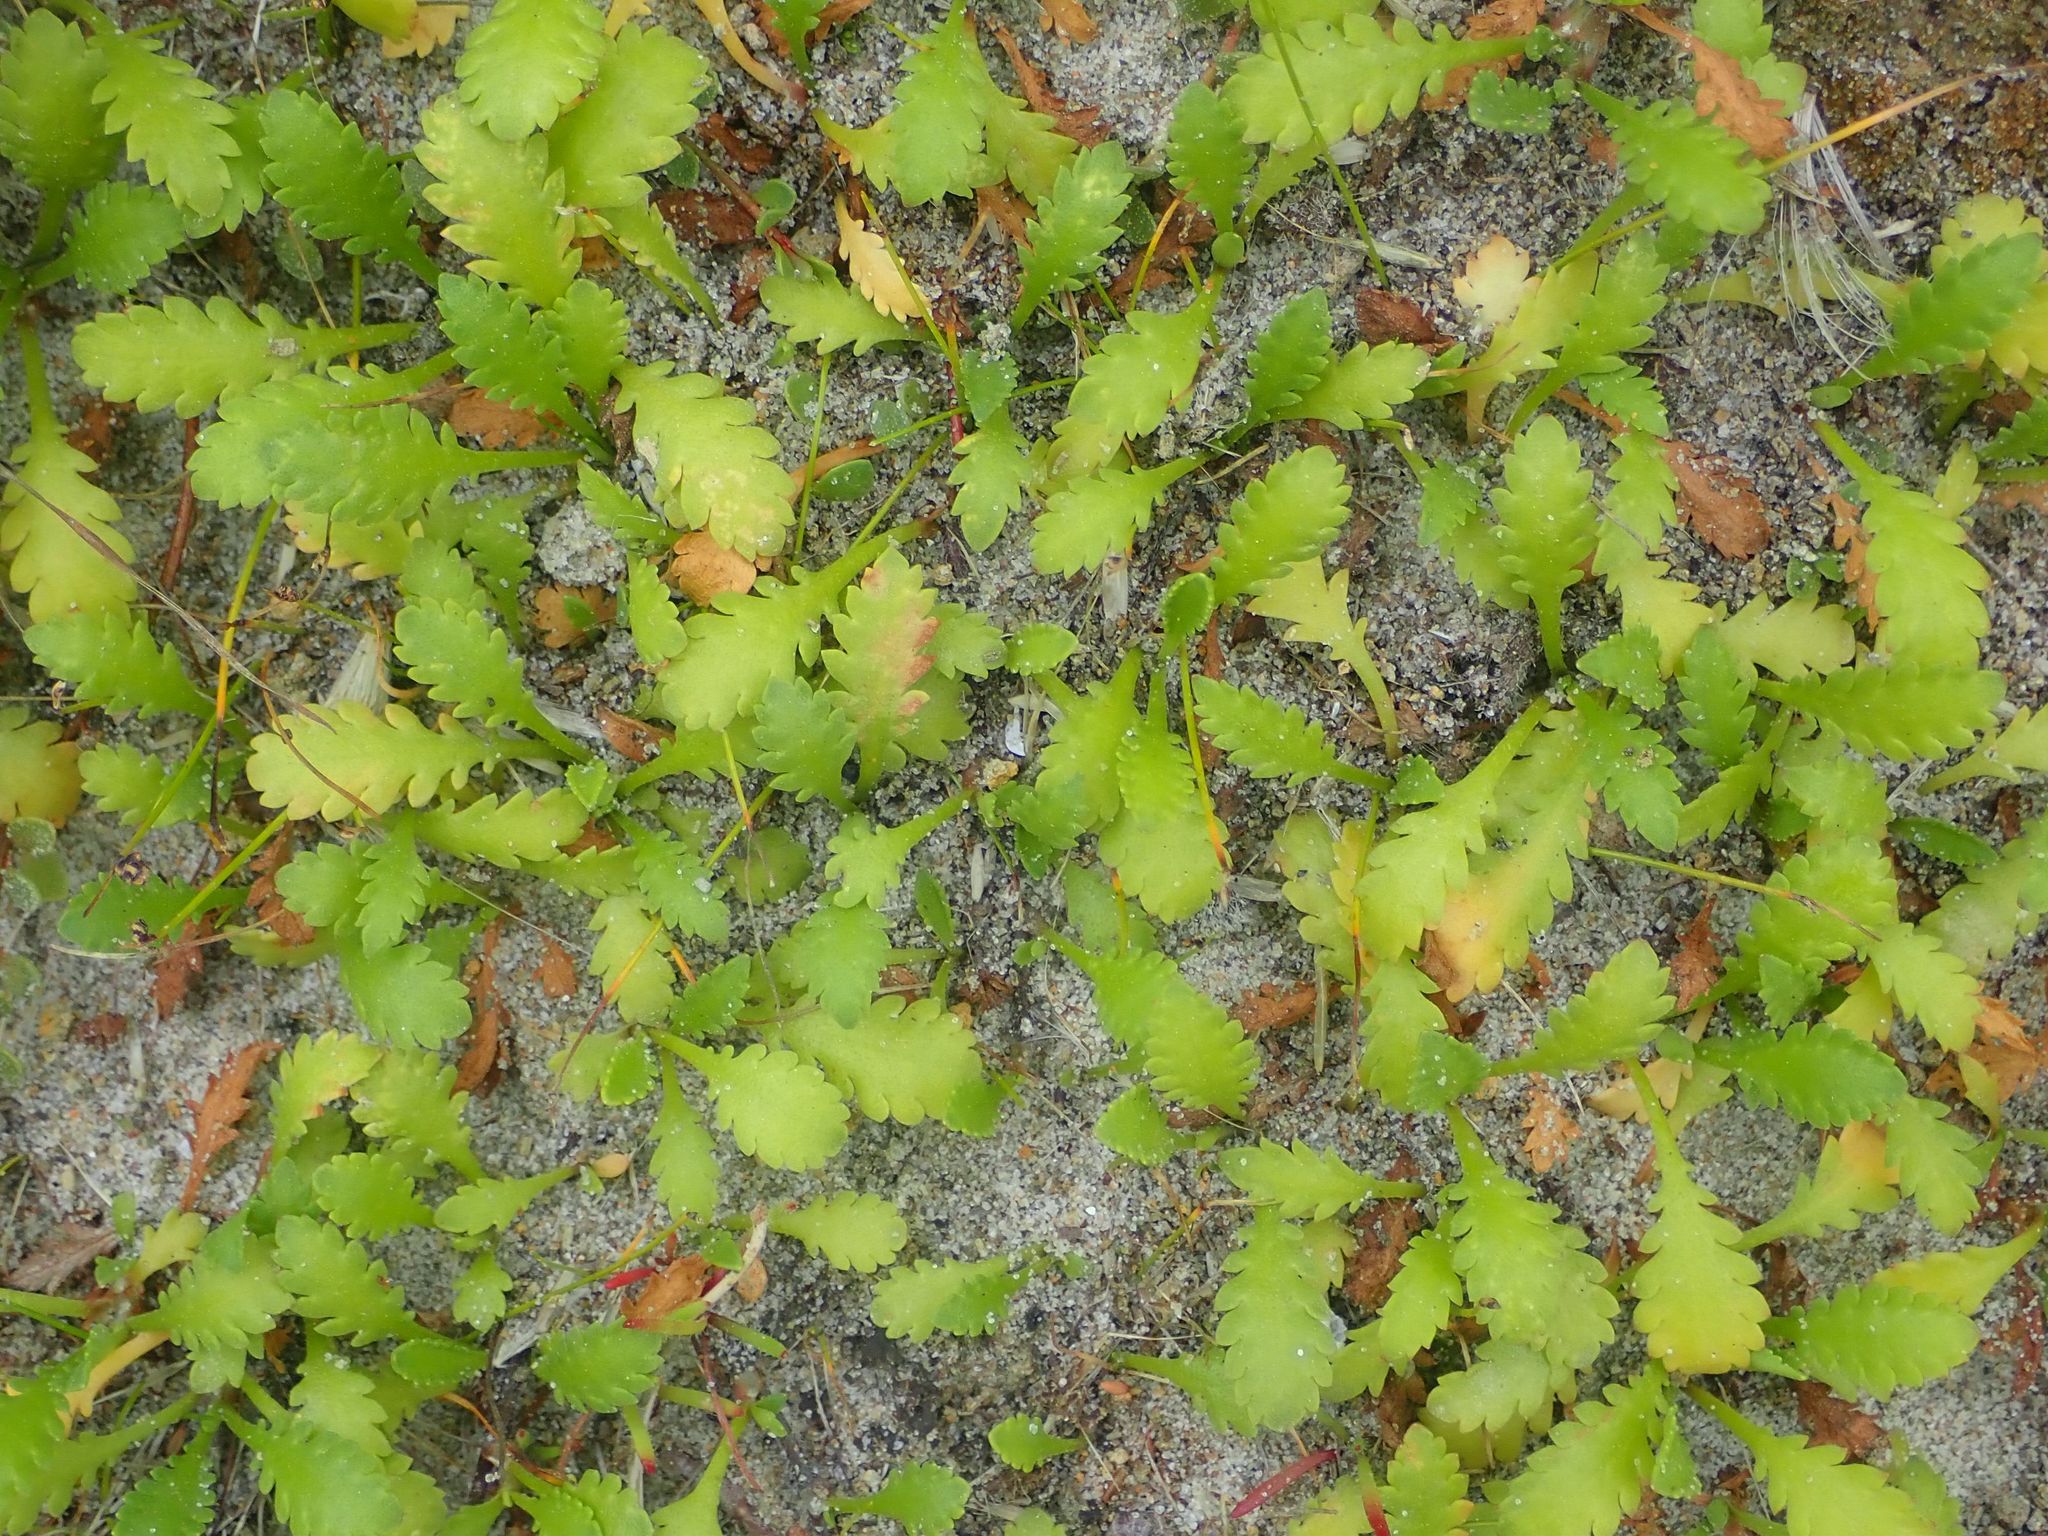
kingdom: Plantae
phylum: Tracheophyta
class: Magnoliopsida
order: Asterales
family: Asteraceae
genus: Leptinella
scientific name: Leptinella dioica
